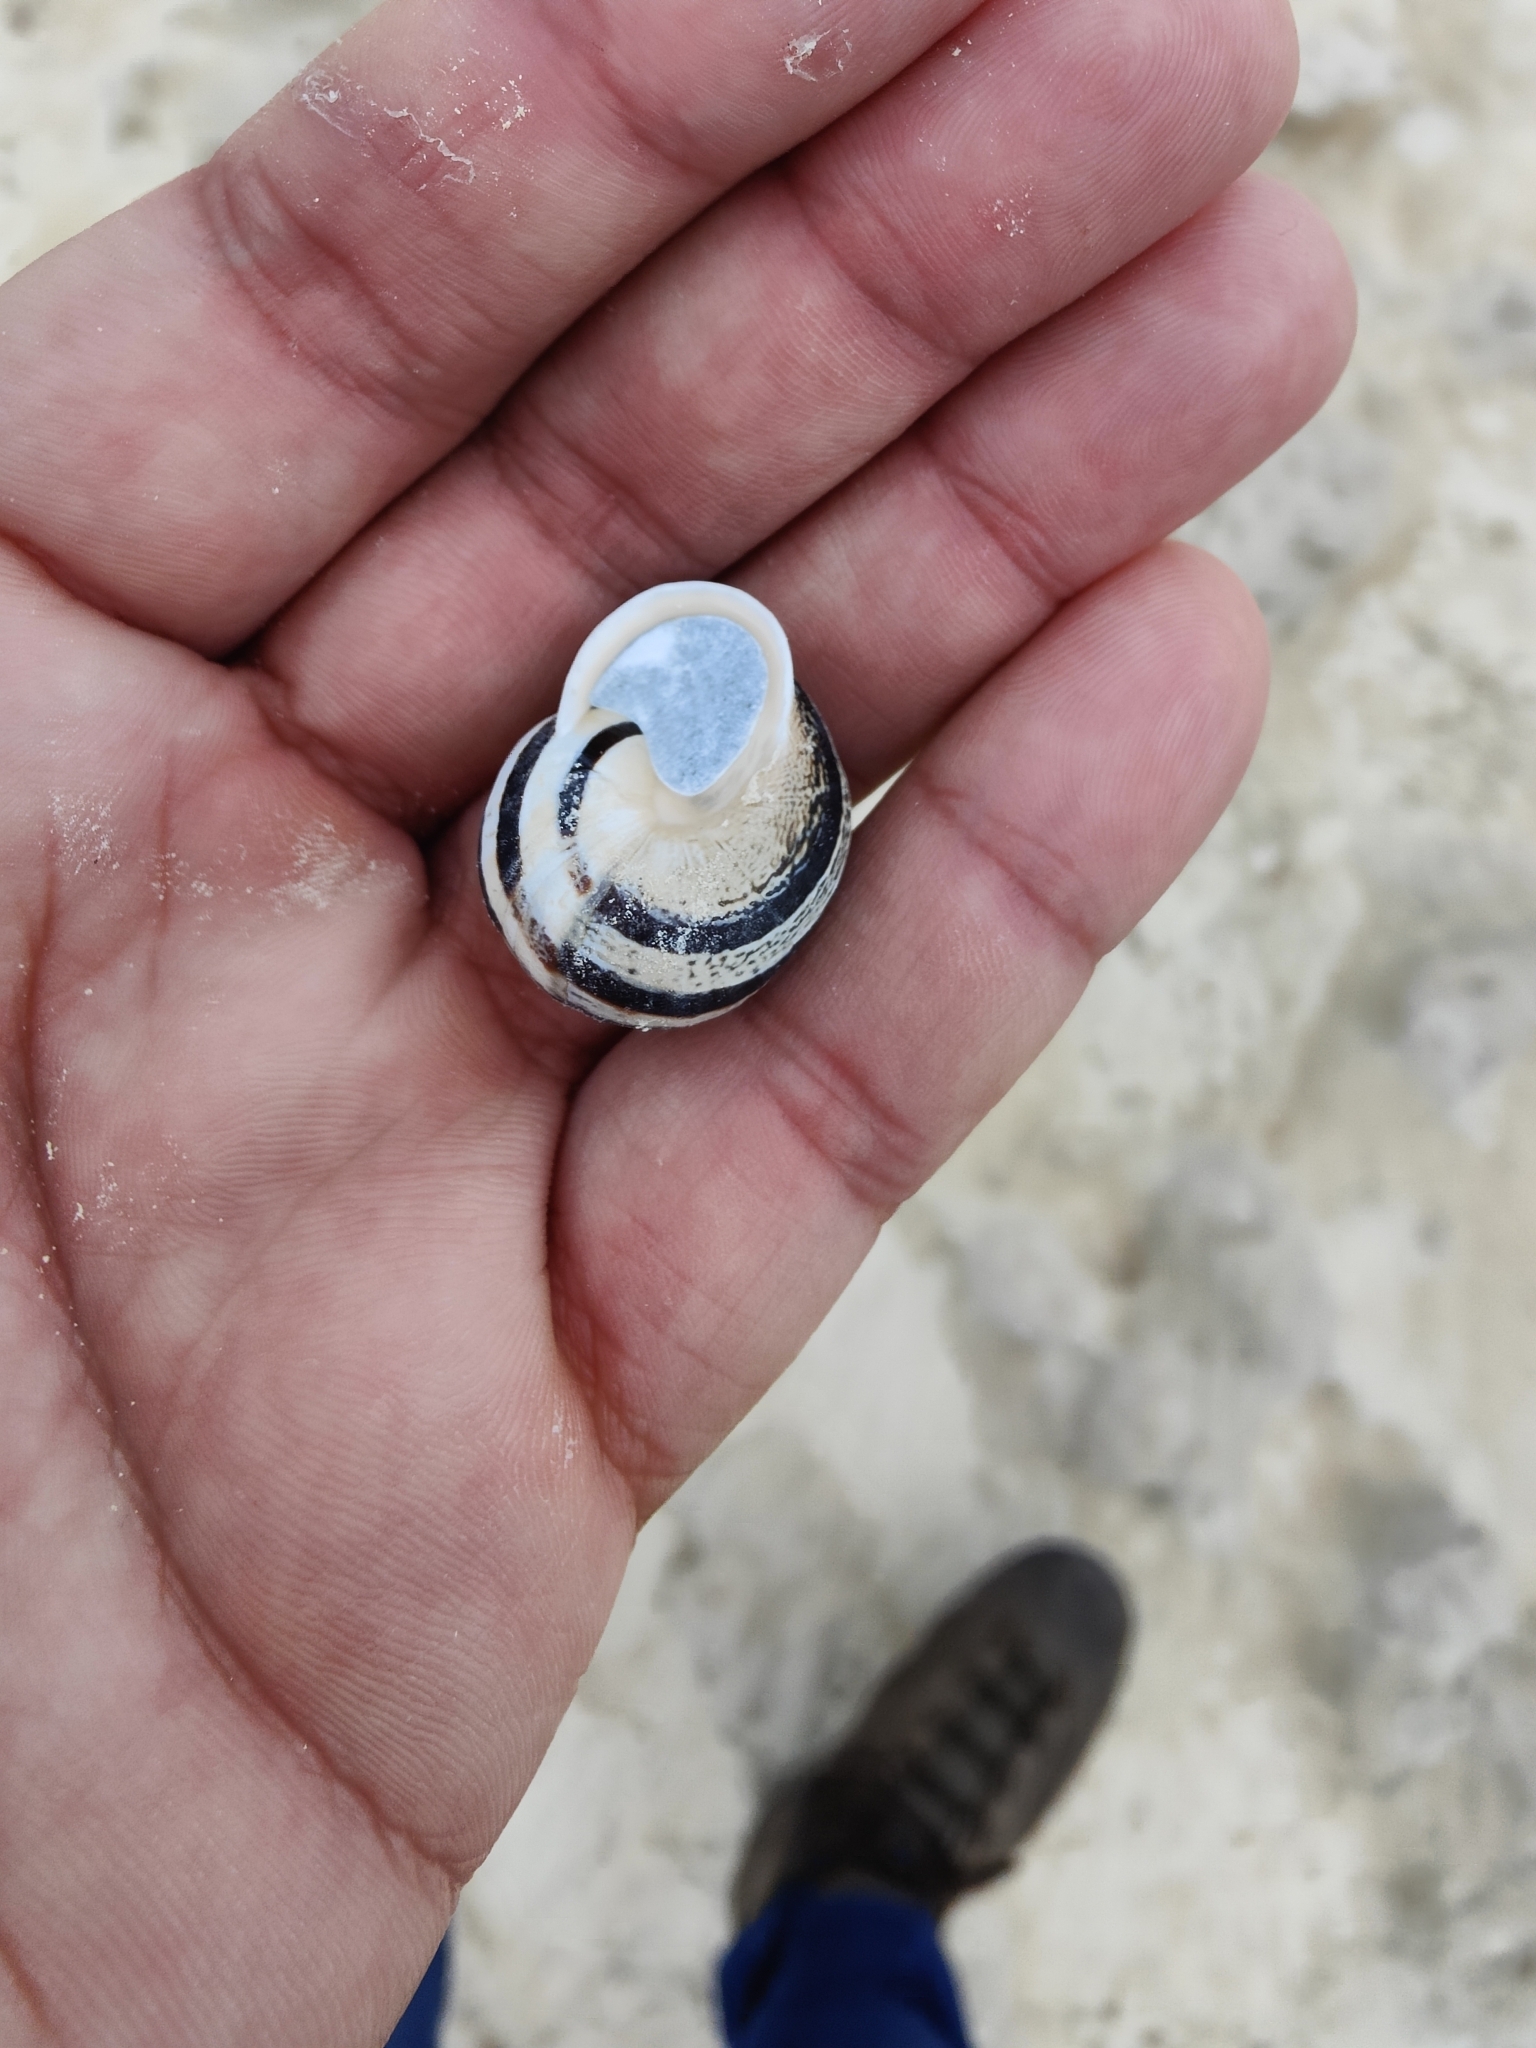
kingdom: Animalia
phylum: Mollusca
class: Gastropoda
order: Stylommatophora
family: Helicidae
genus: Eobania
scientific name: Eobania vermiculata
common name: Chocolateband snail
